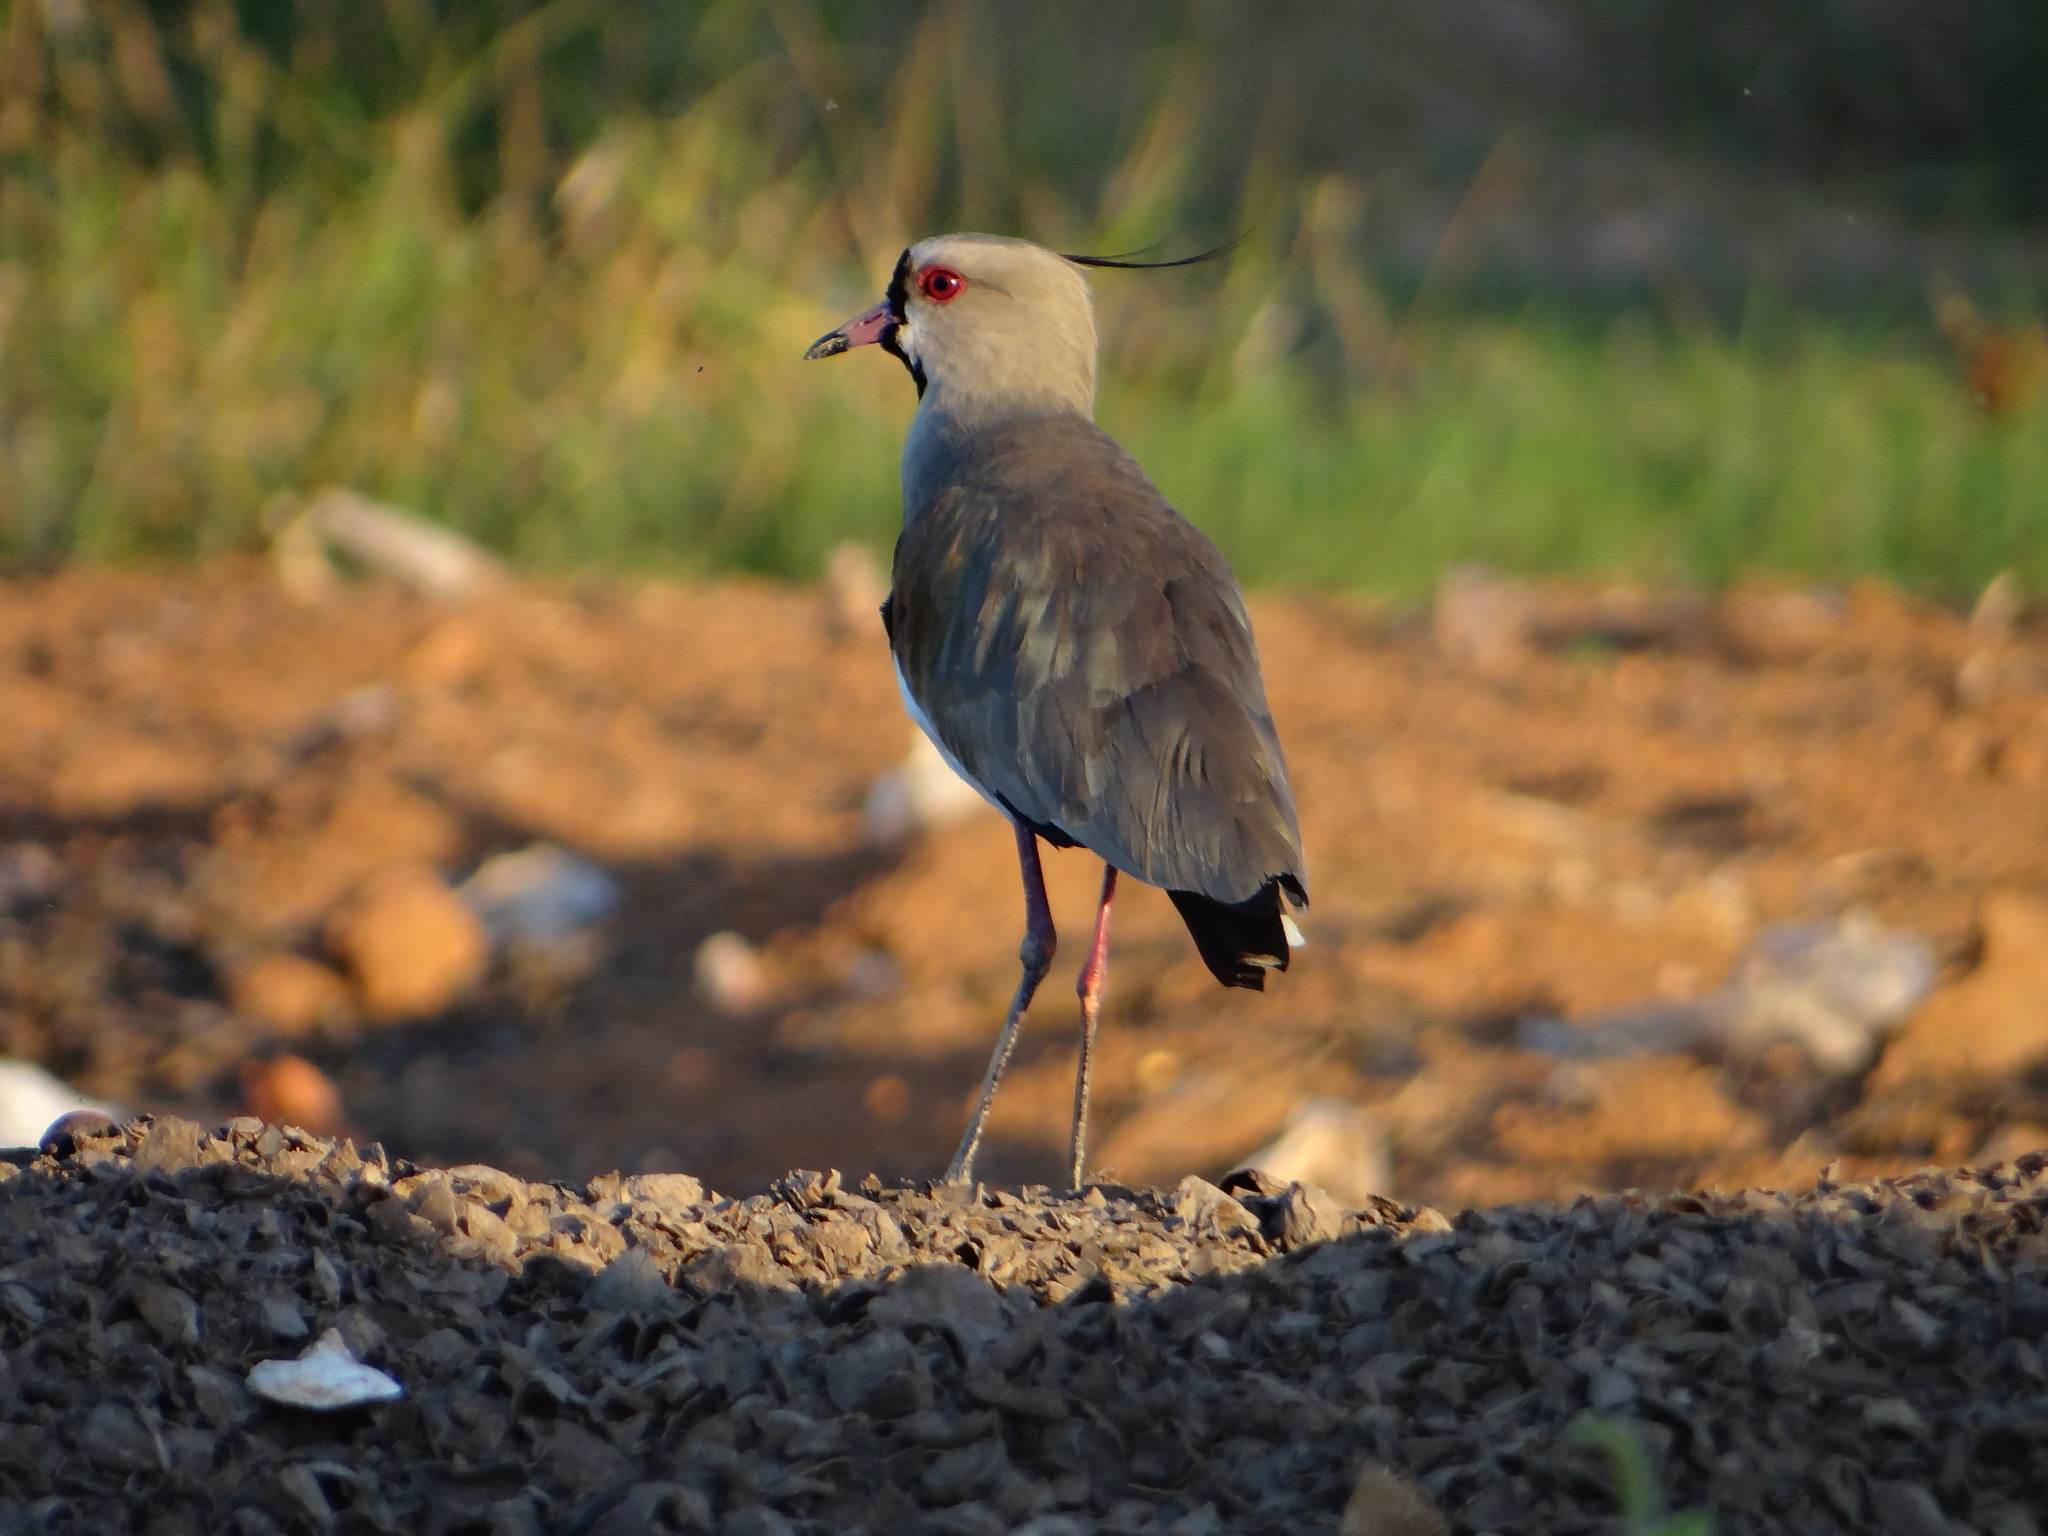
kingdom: Animalia
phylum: Chordata
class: Aves
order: Charadriiformes
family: Charadriidae
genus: Vanellus
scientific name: Vanellus chilensis
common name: Southern lapwing
